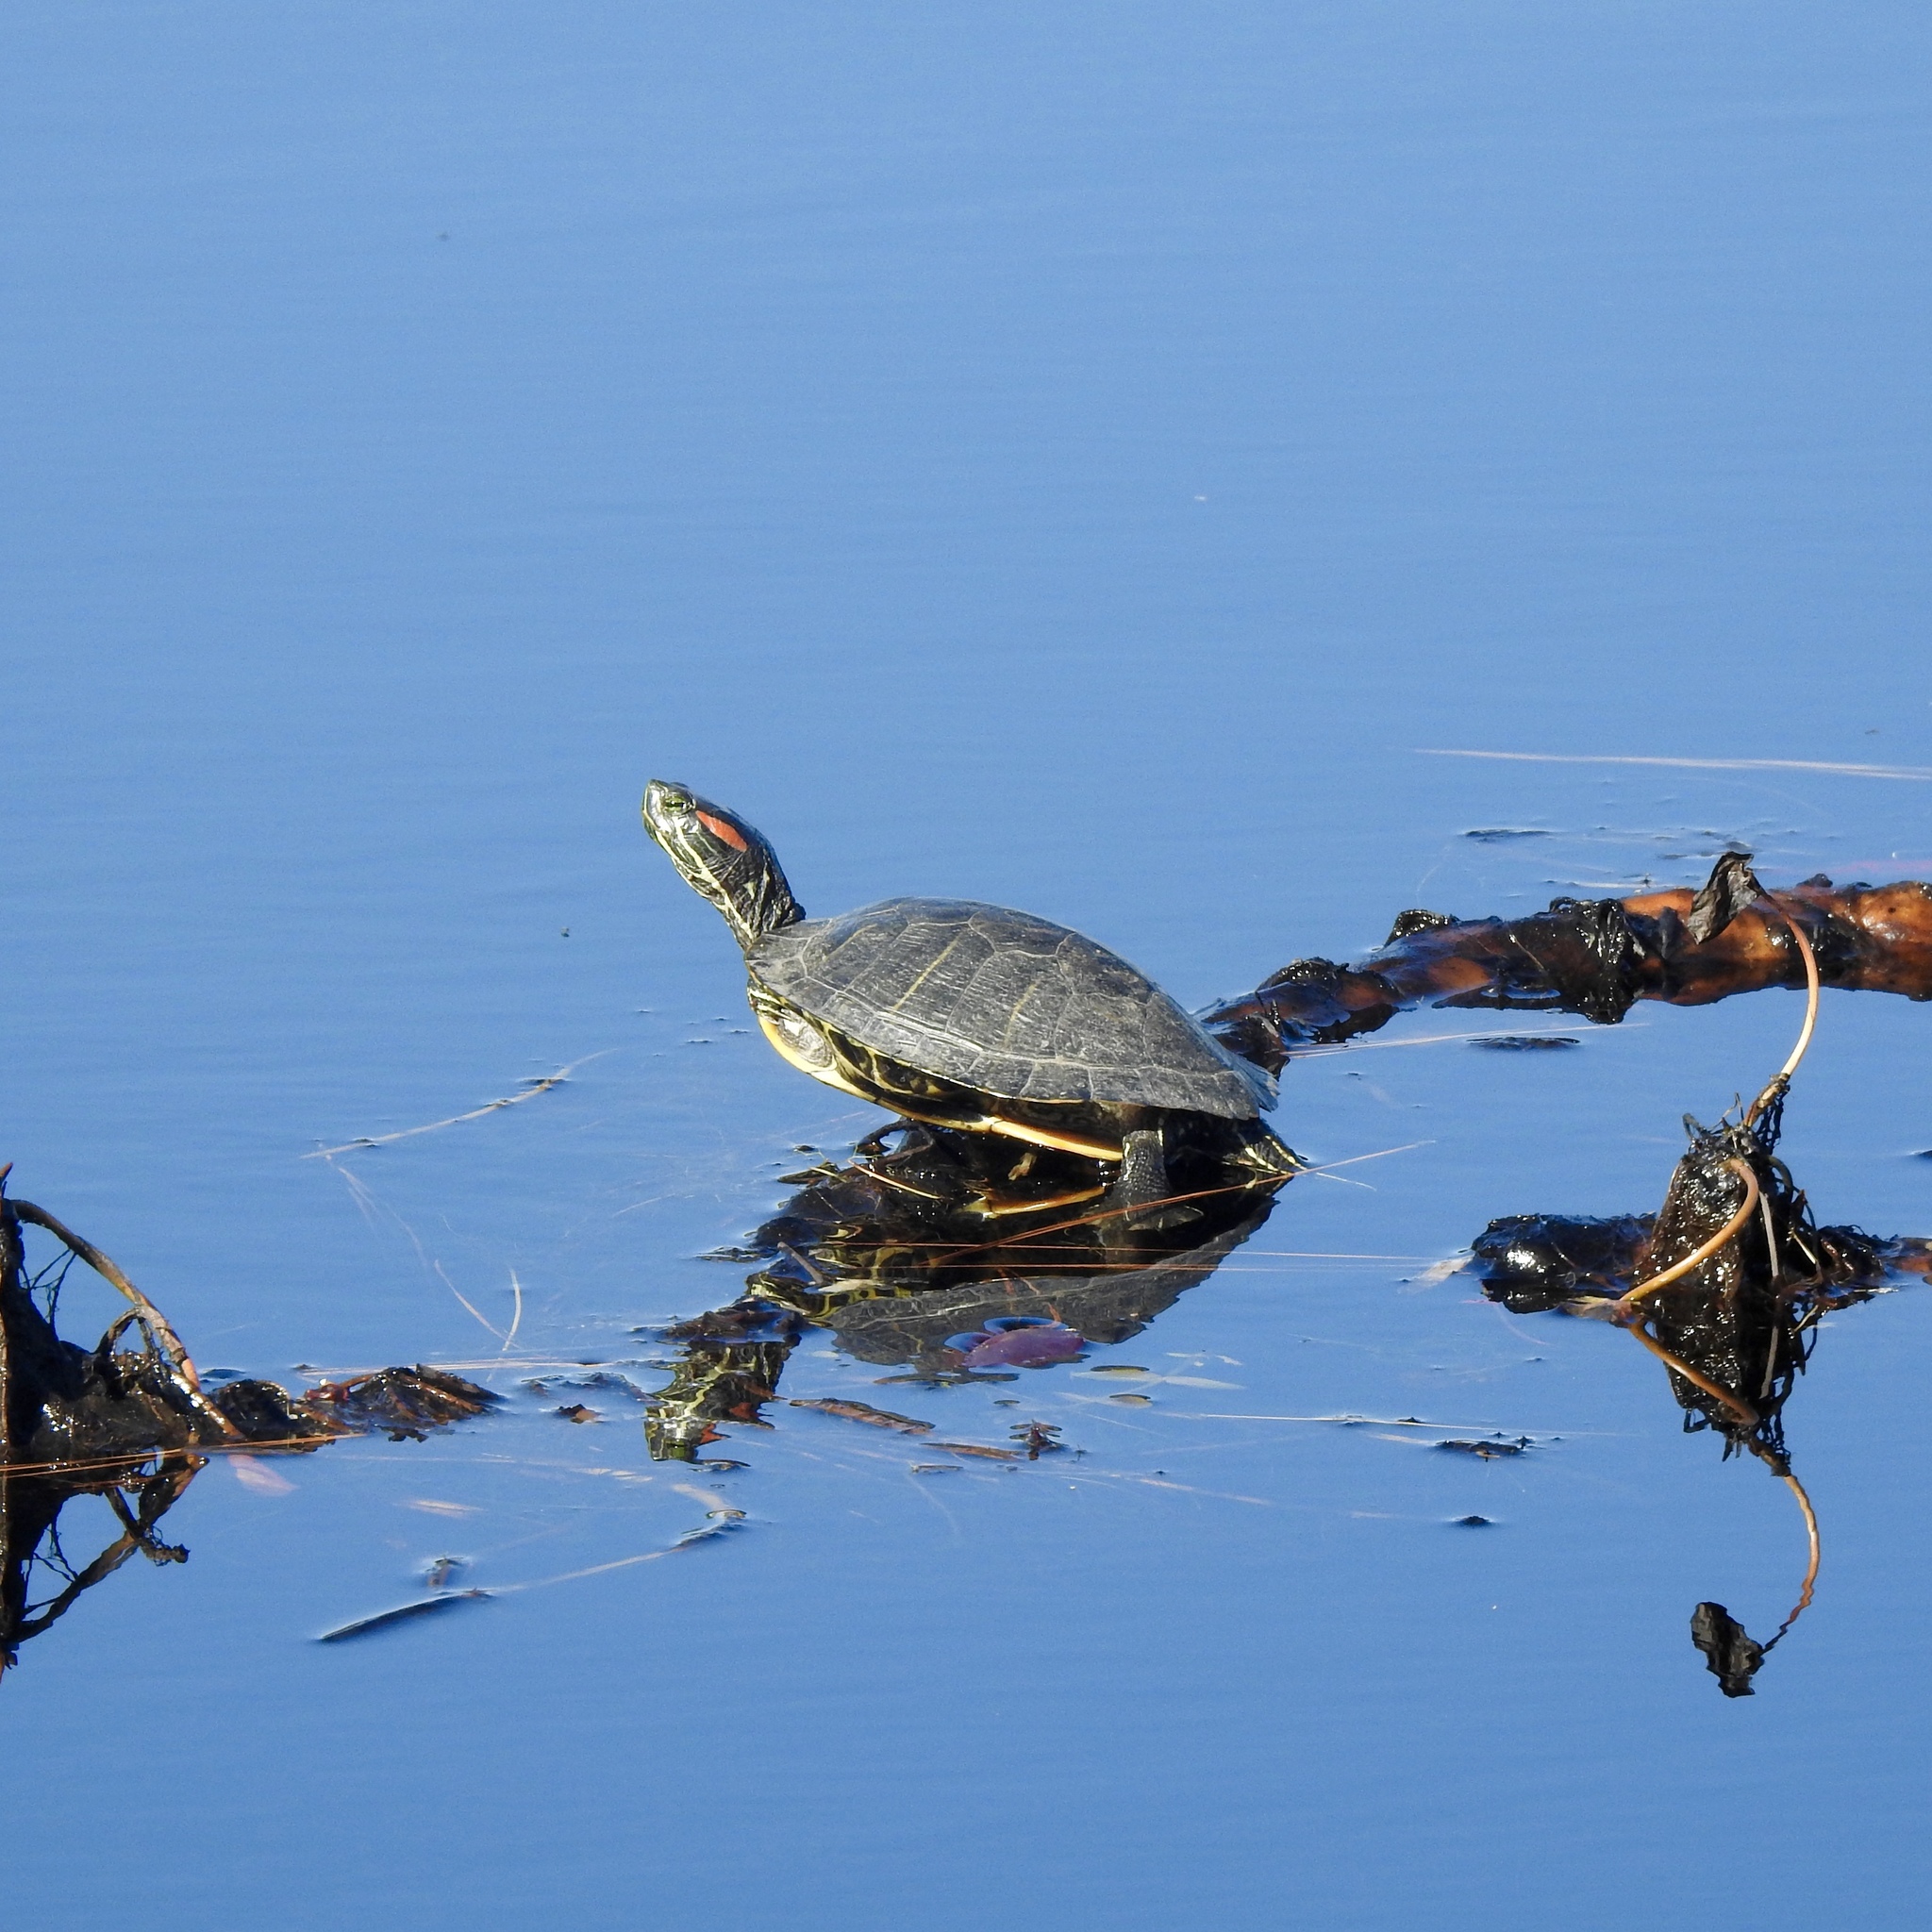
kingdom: Animalia
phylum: Chordata
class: Testudines
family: Emydidae
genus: Trachemys
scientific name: Trachemys scripta
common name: Slider
